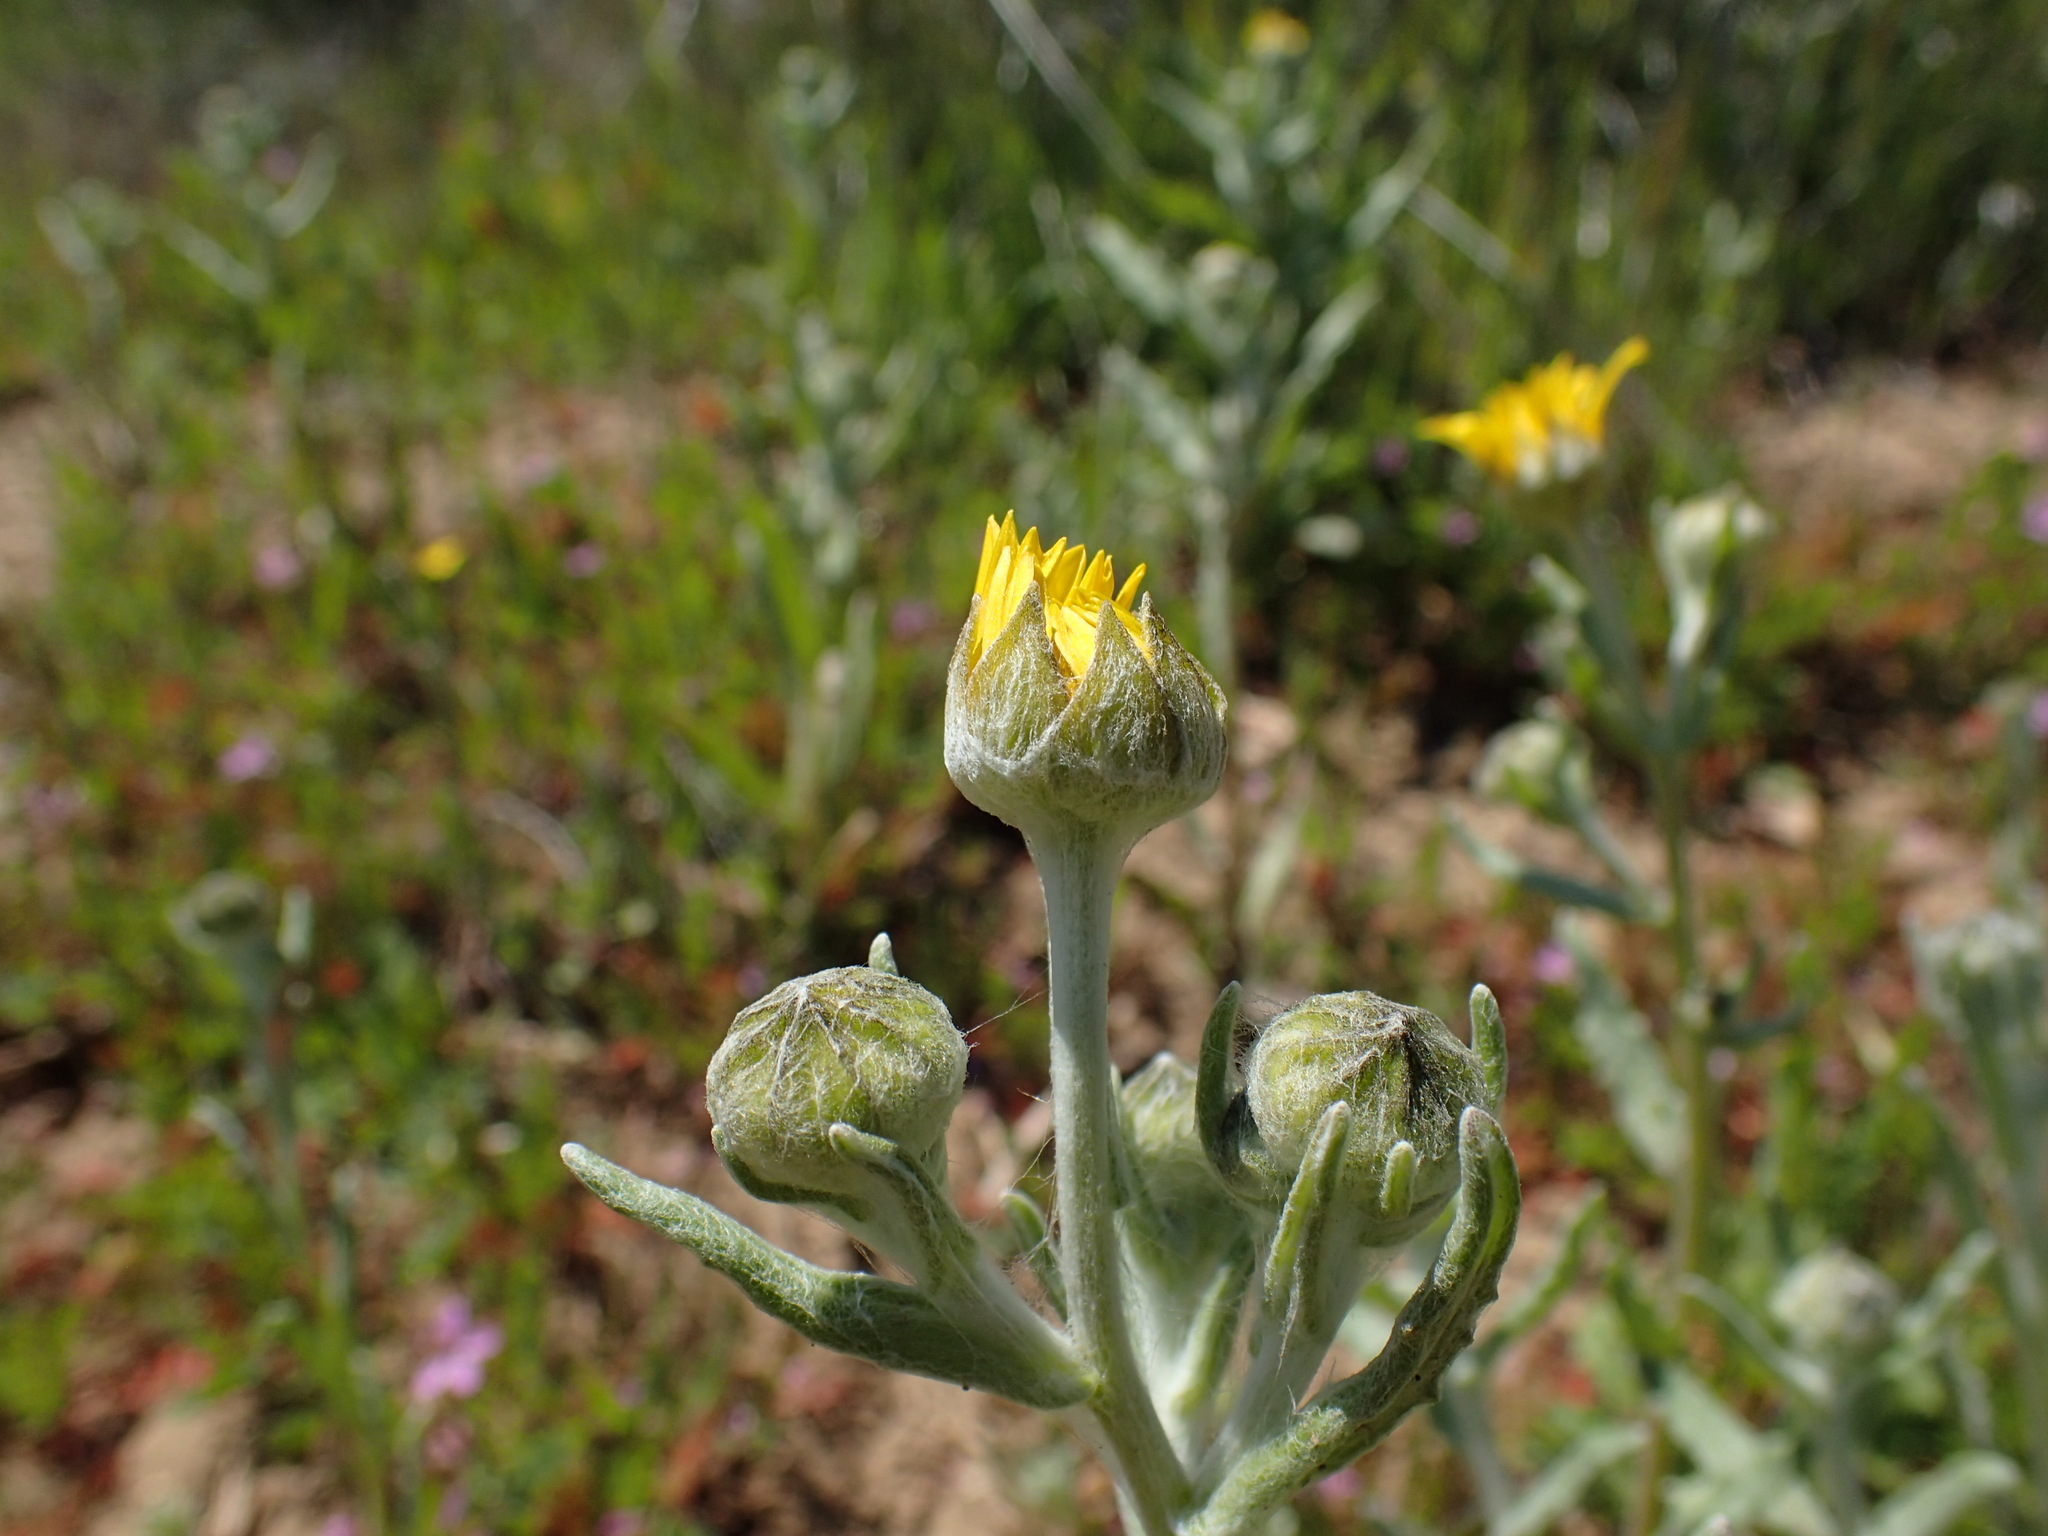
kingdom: Plantae
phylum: Tracheophyta
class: Magnoliopsida
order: Asterales
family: Asteraceae
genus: Monolopia
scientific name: Monolopia lanceolata
